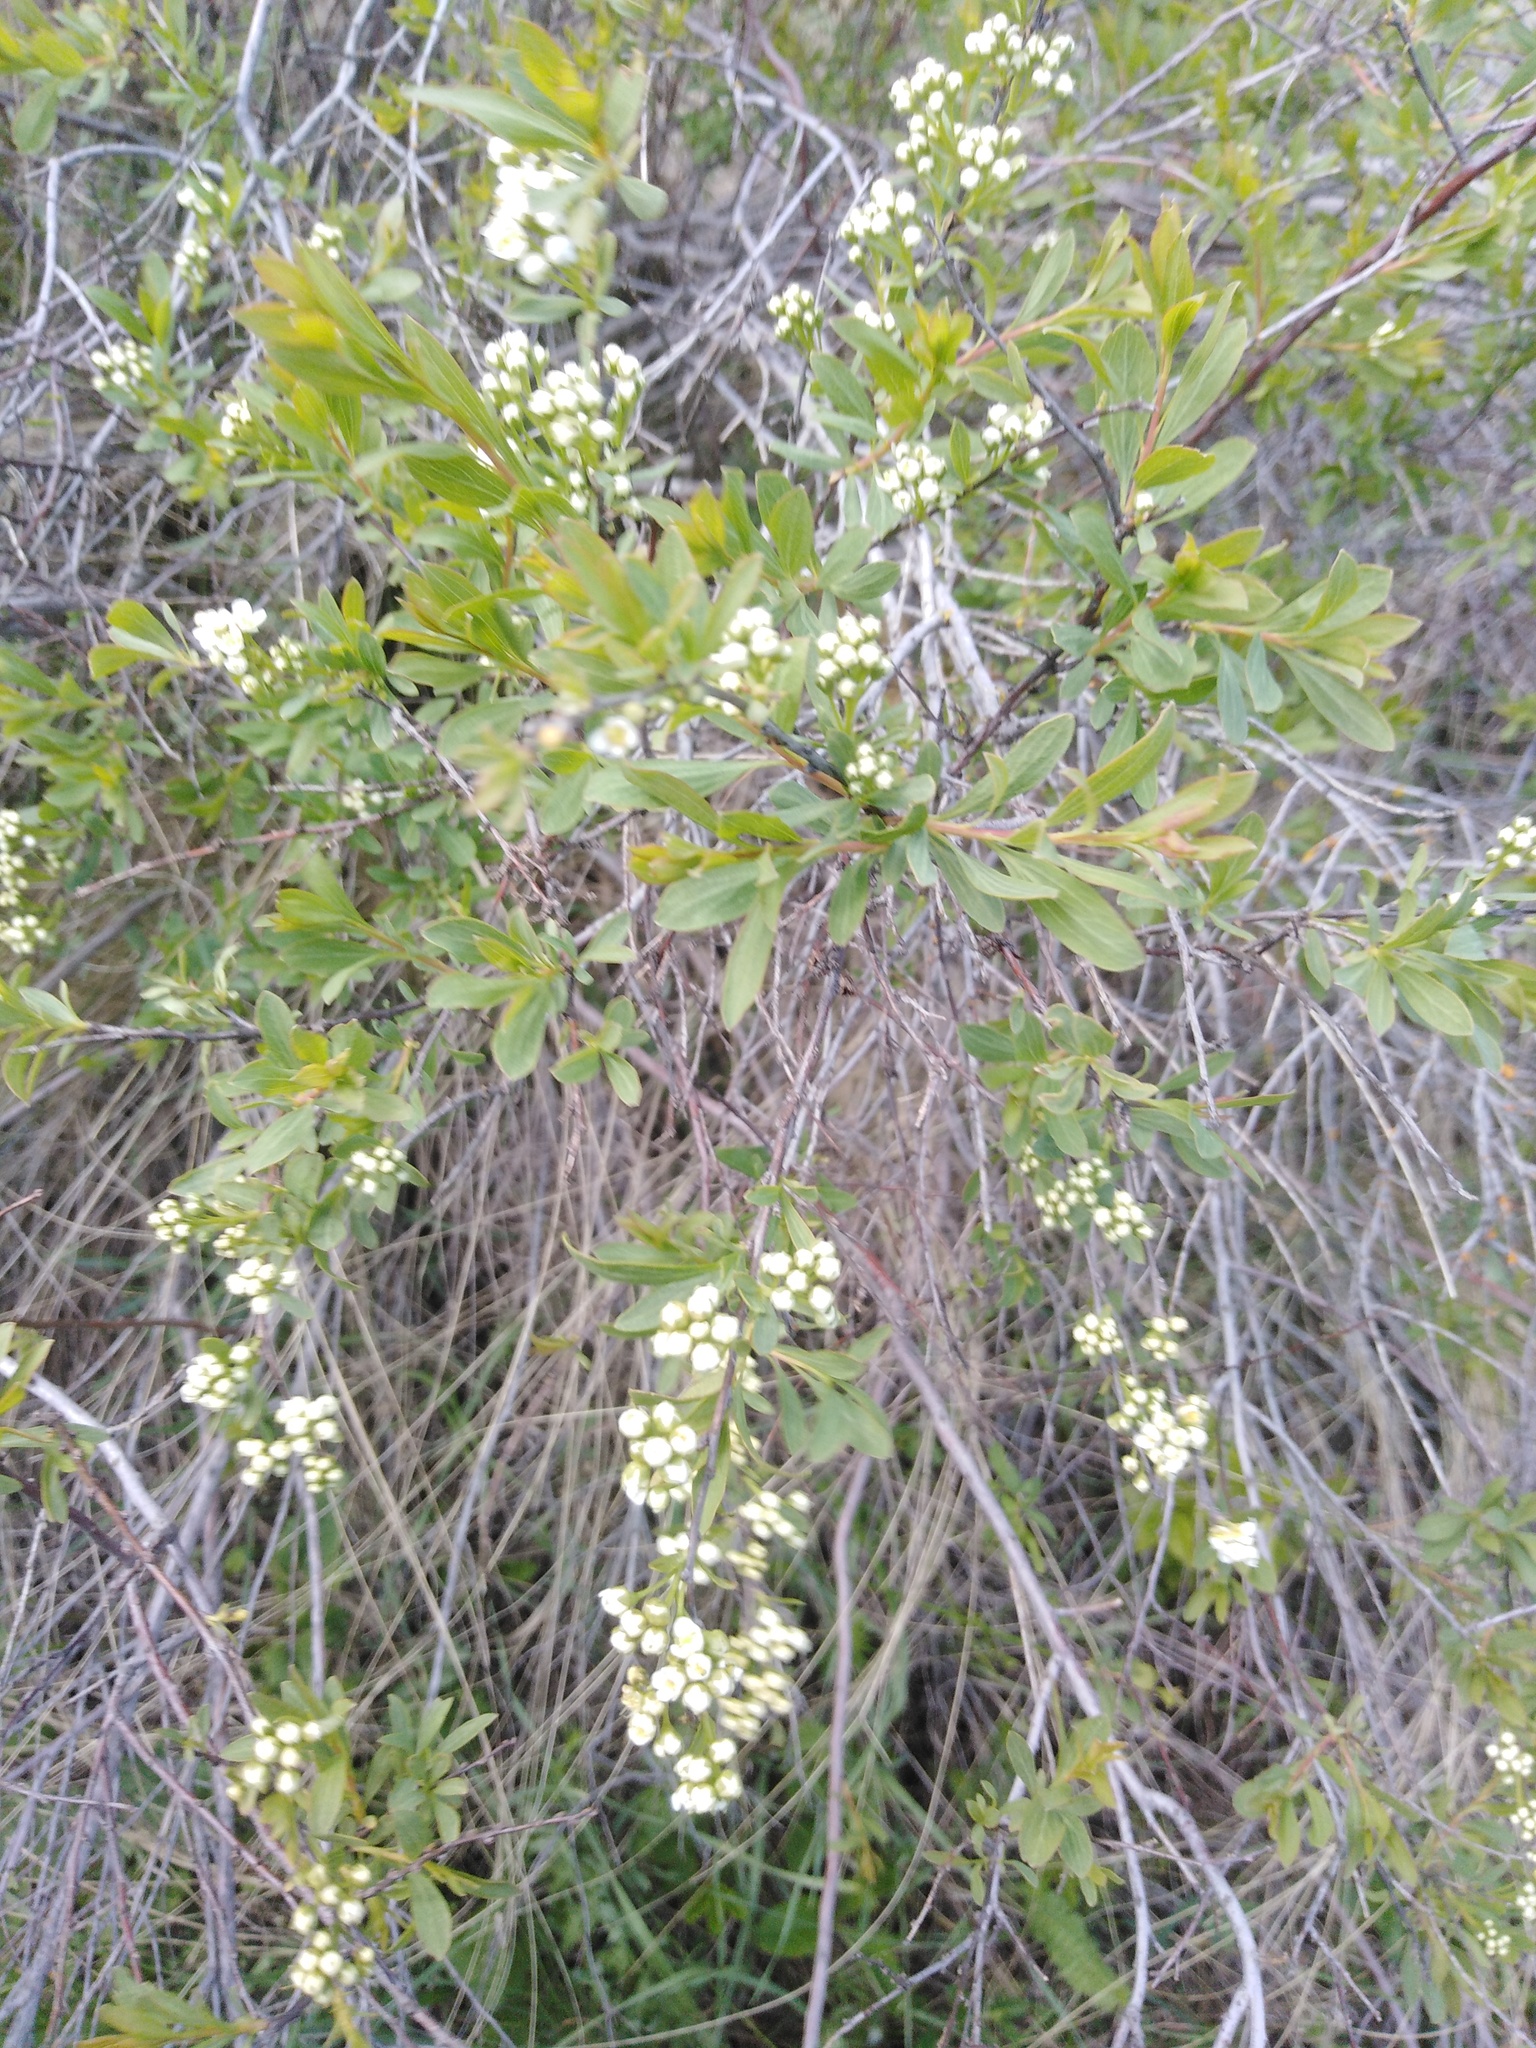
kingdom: Plantae
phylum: Tracheophyta
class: Magnoliopsida
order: Rosales
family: Rosaceae
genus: Spiraea
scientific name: Spiraea crenata
